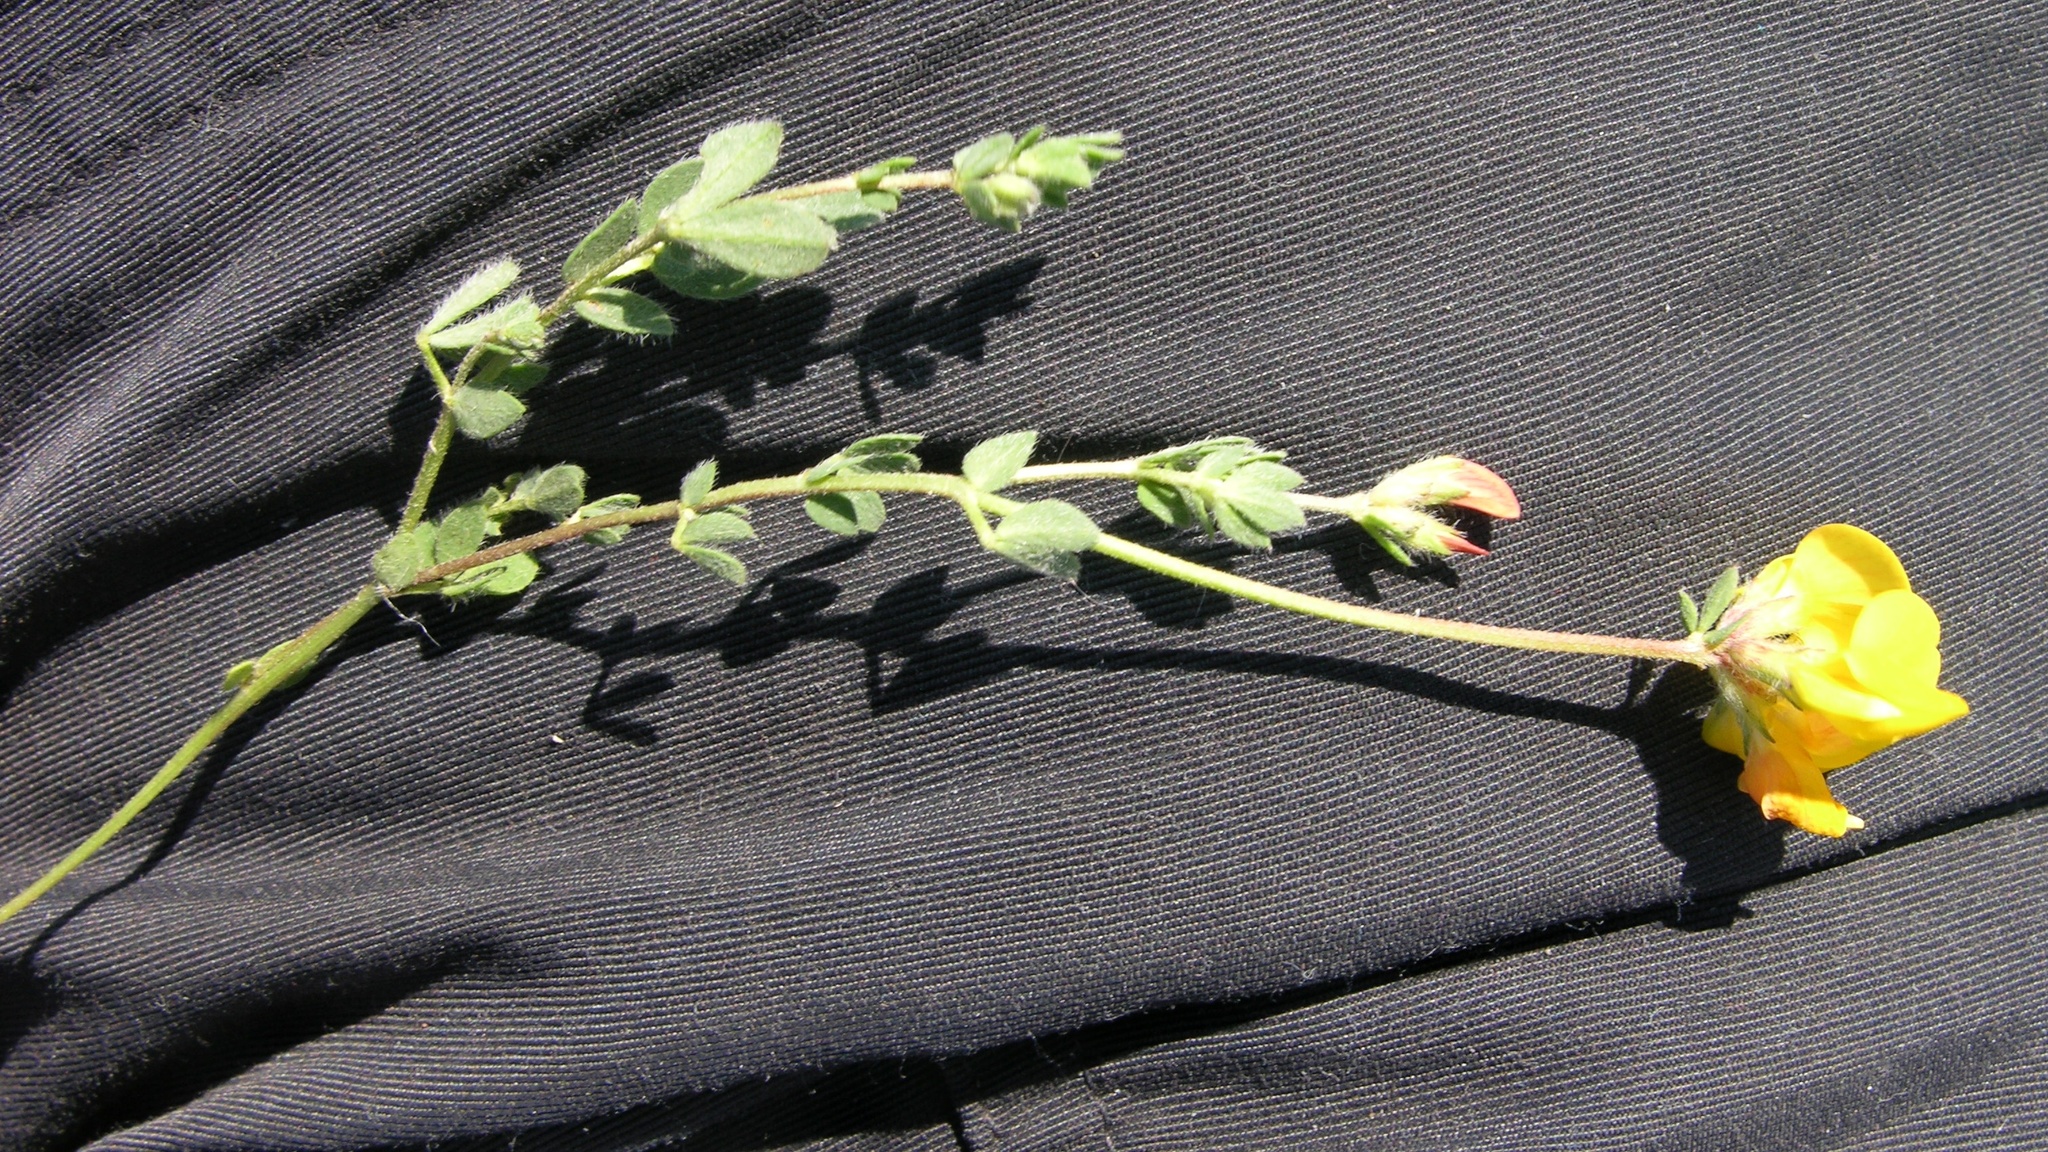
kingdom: Plantae
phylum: Tracheophyta
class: Magnoliopsida
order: Fabales
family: Fabaceae
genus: Lotus
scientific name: Lotus corniculatus
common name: Common bird's-foot-trefoil
